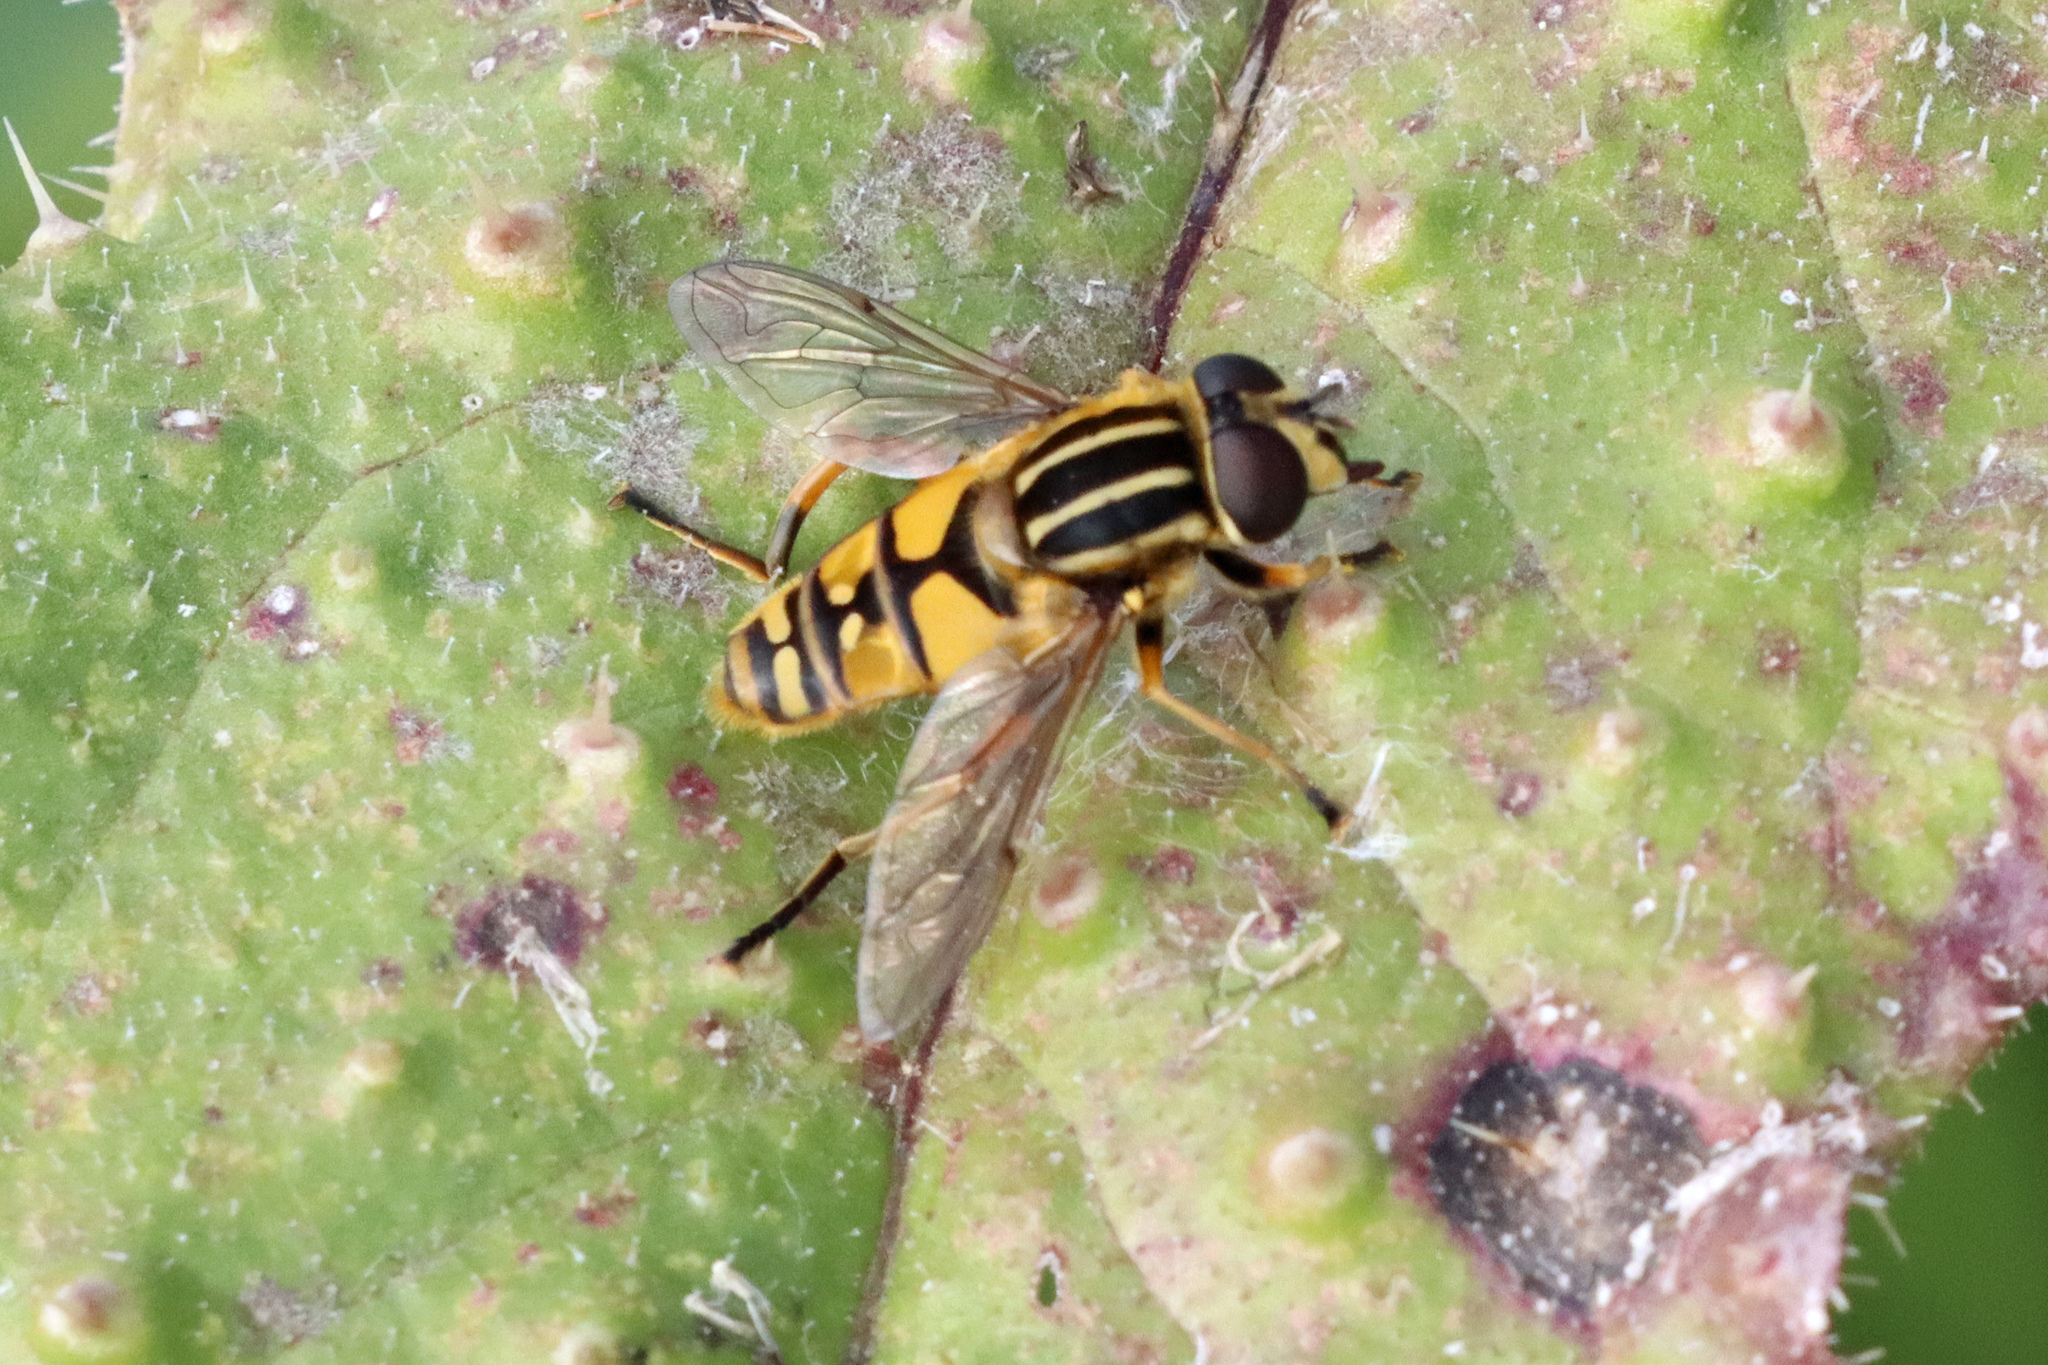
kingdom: Animalia
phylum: Arthropoda
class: Insecta
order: Diptera
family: Syrphidae
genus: Helophilus
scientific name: Helophilus pendulus
